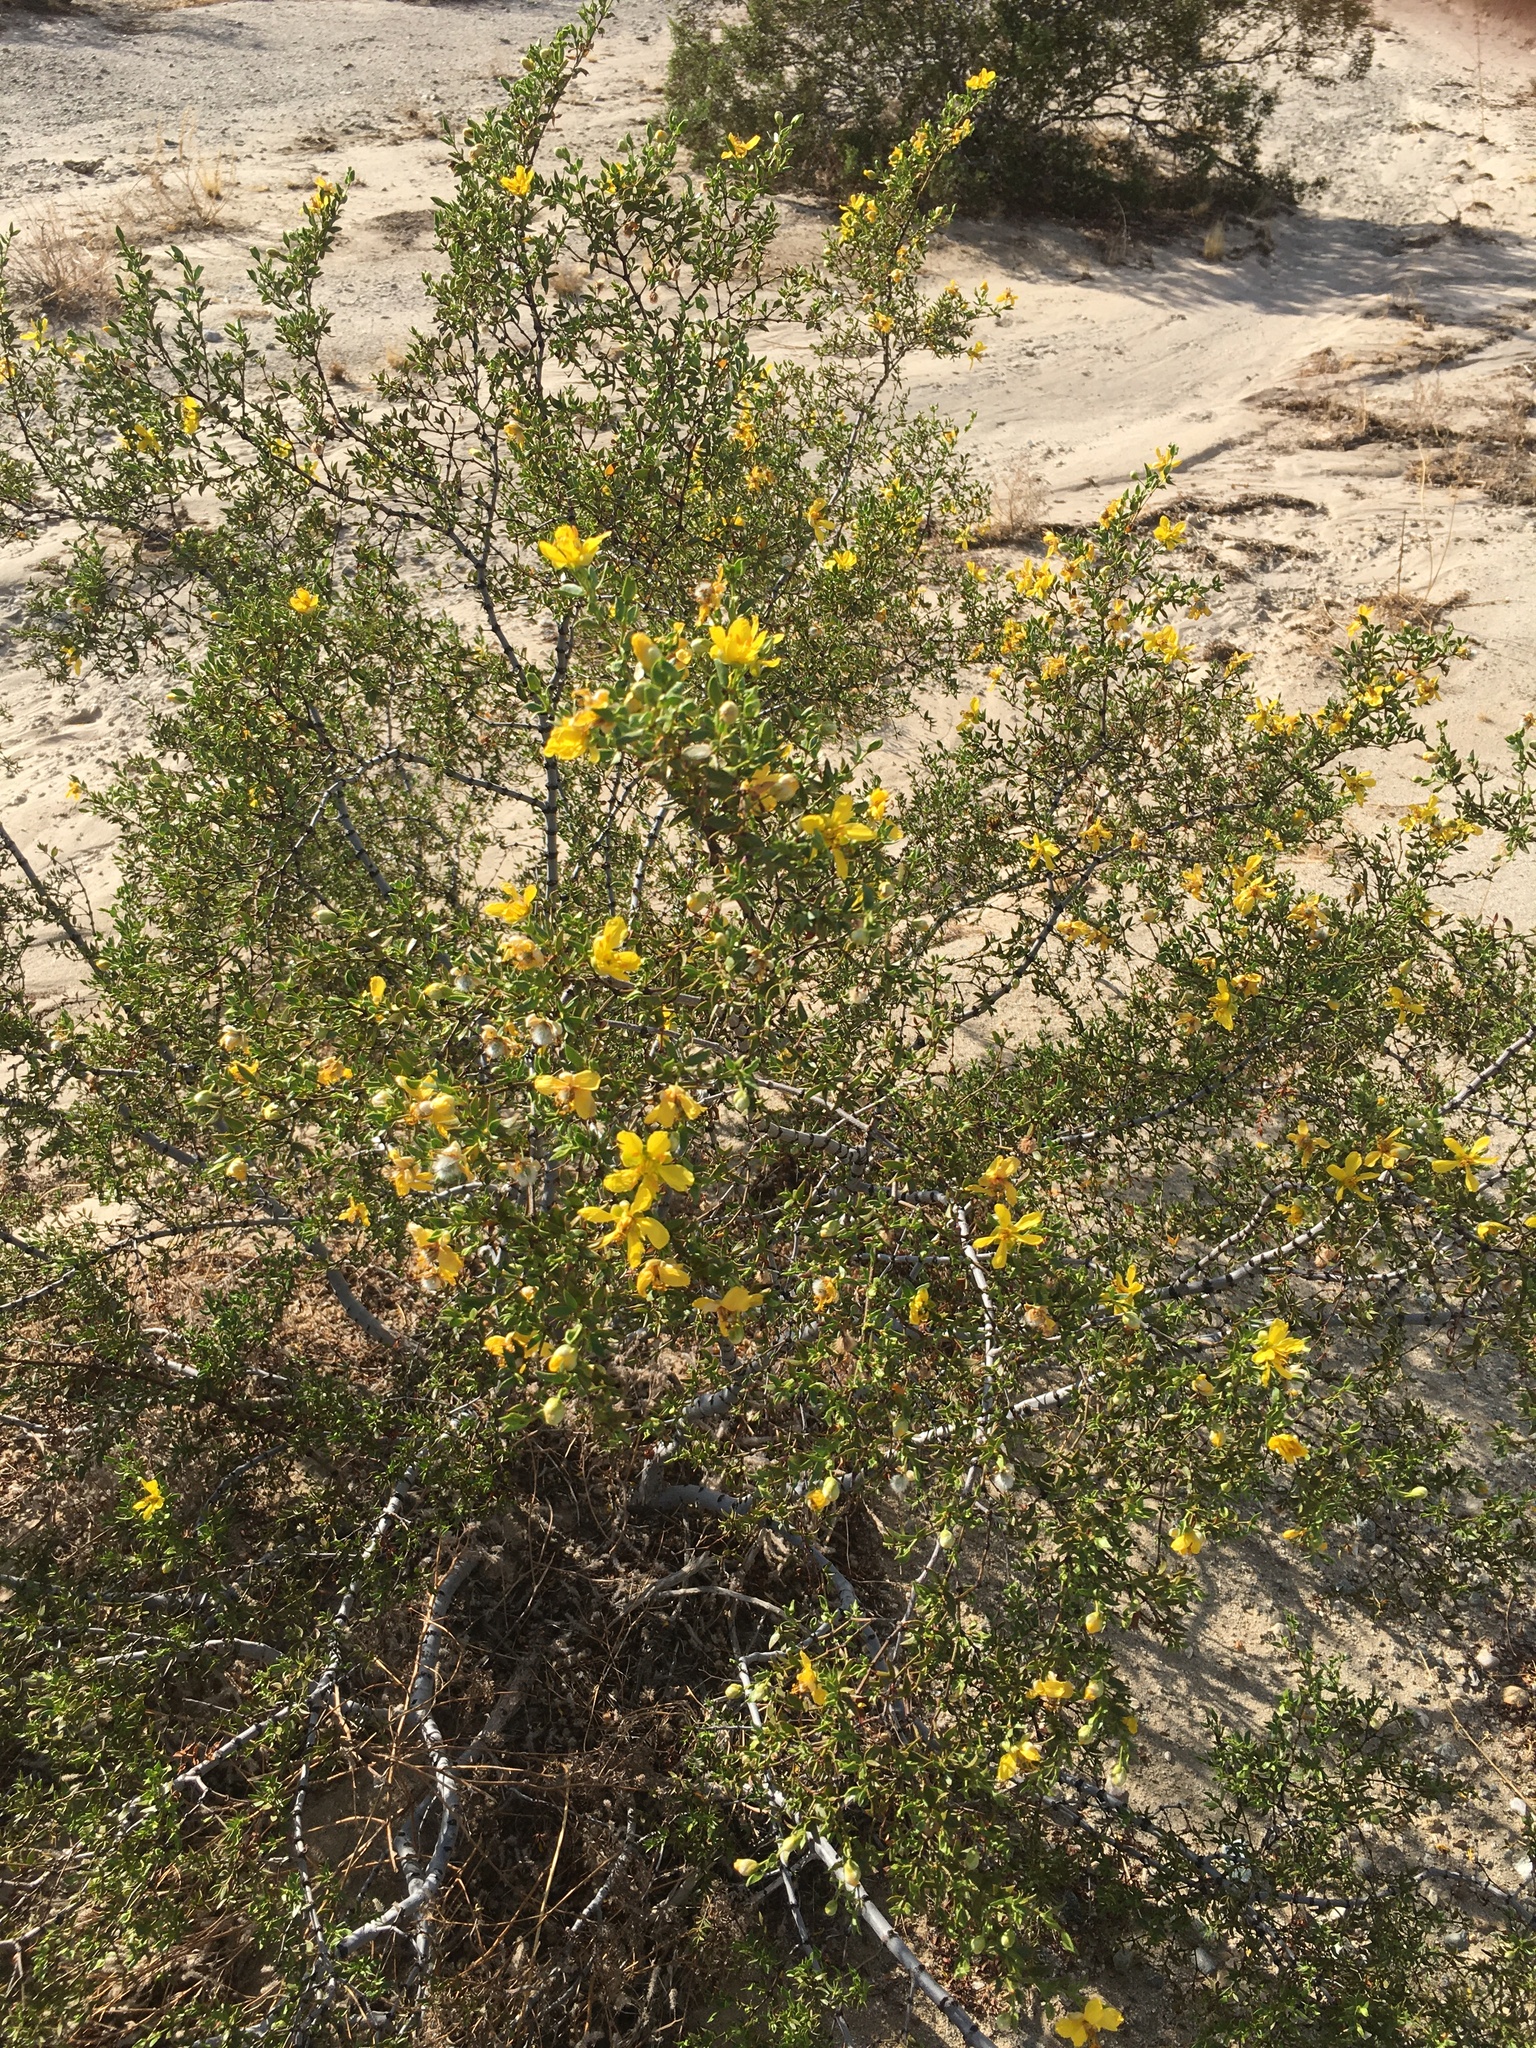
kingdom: Plantae
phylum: Tracheophyta
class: Magnoliopsida
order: Zygophyllales
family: Zygophyllaceae
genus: Larrea
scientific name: Larrea tridentata
